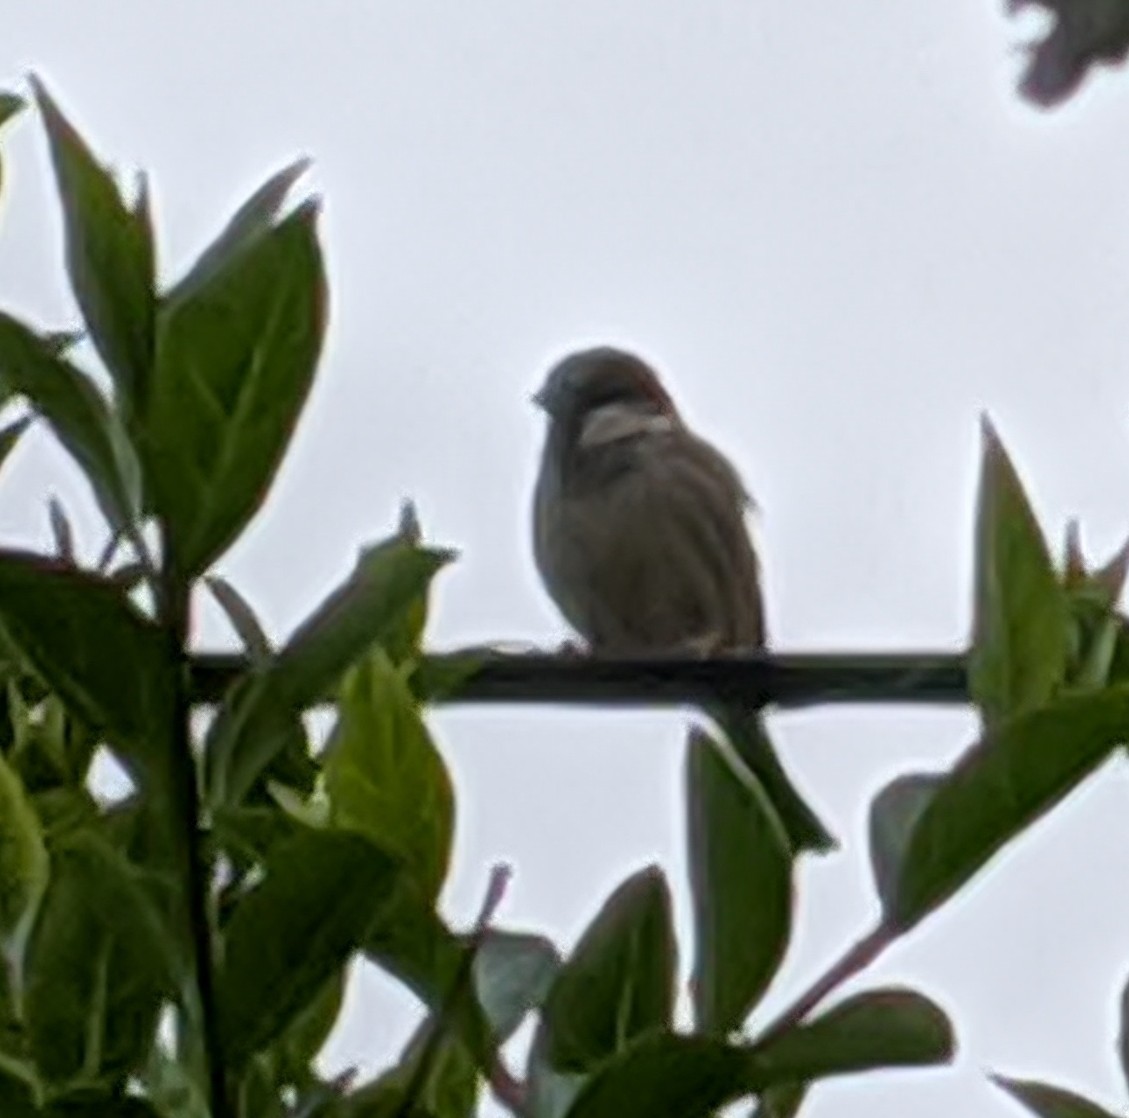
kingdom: Animalia
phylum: Chordata
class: Aves
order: Passeriformes
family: Passeridae
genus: Passer
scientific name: Passer domesticus
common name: House sparrow
